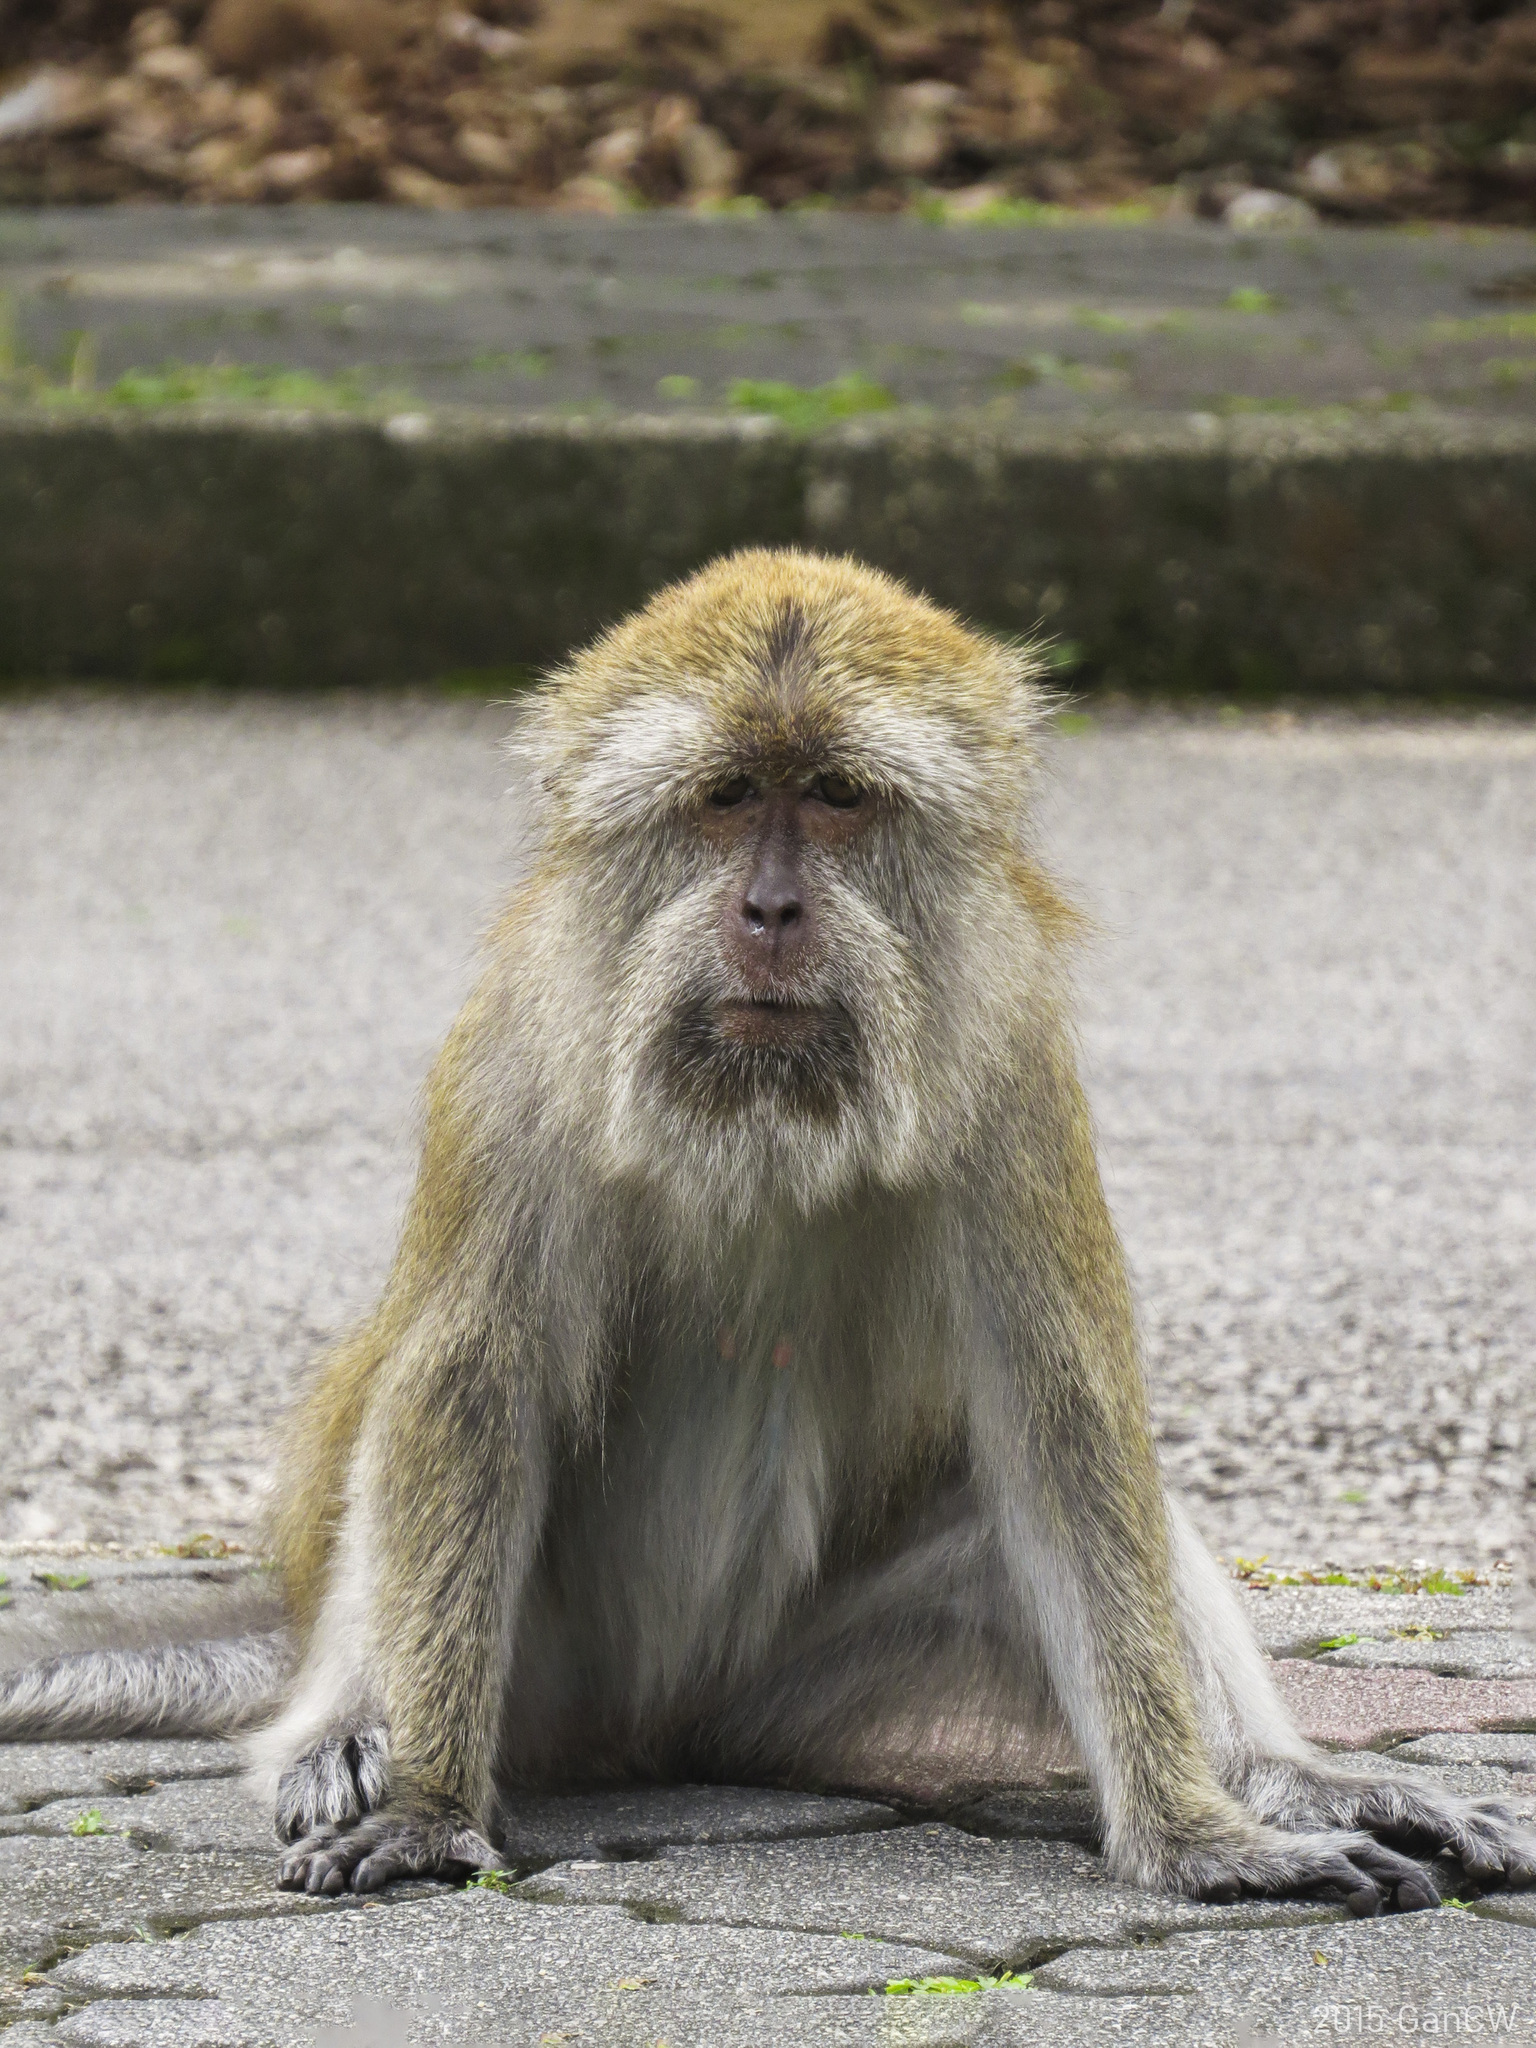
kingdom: Animalia
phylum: Chordata
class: Mammalia
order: Primates
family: Cercopithecidae
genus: Macaca
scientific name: Macaca fascicularis
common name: Crab-eating macaque
